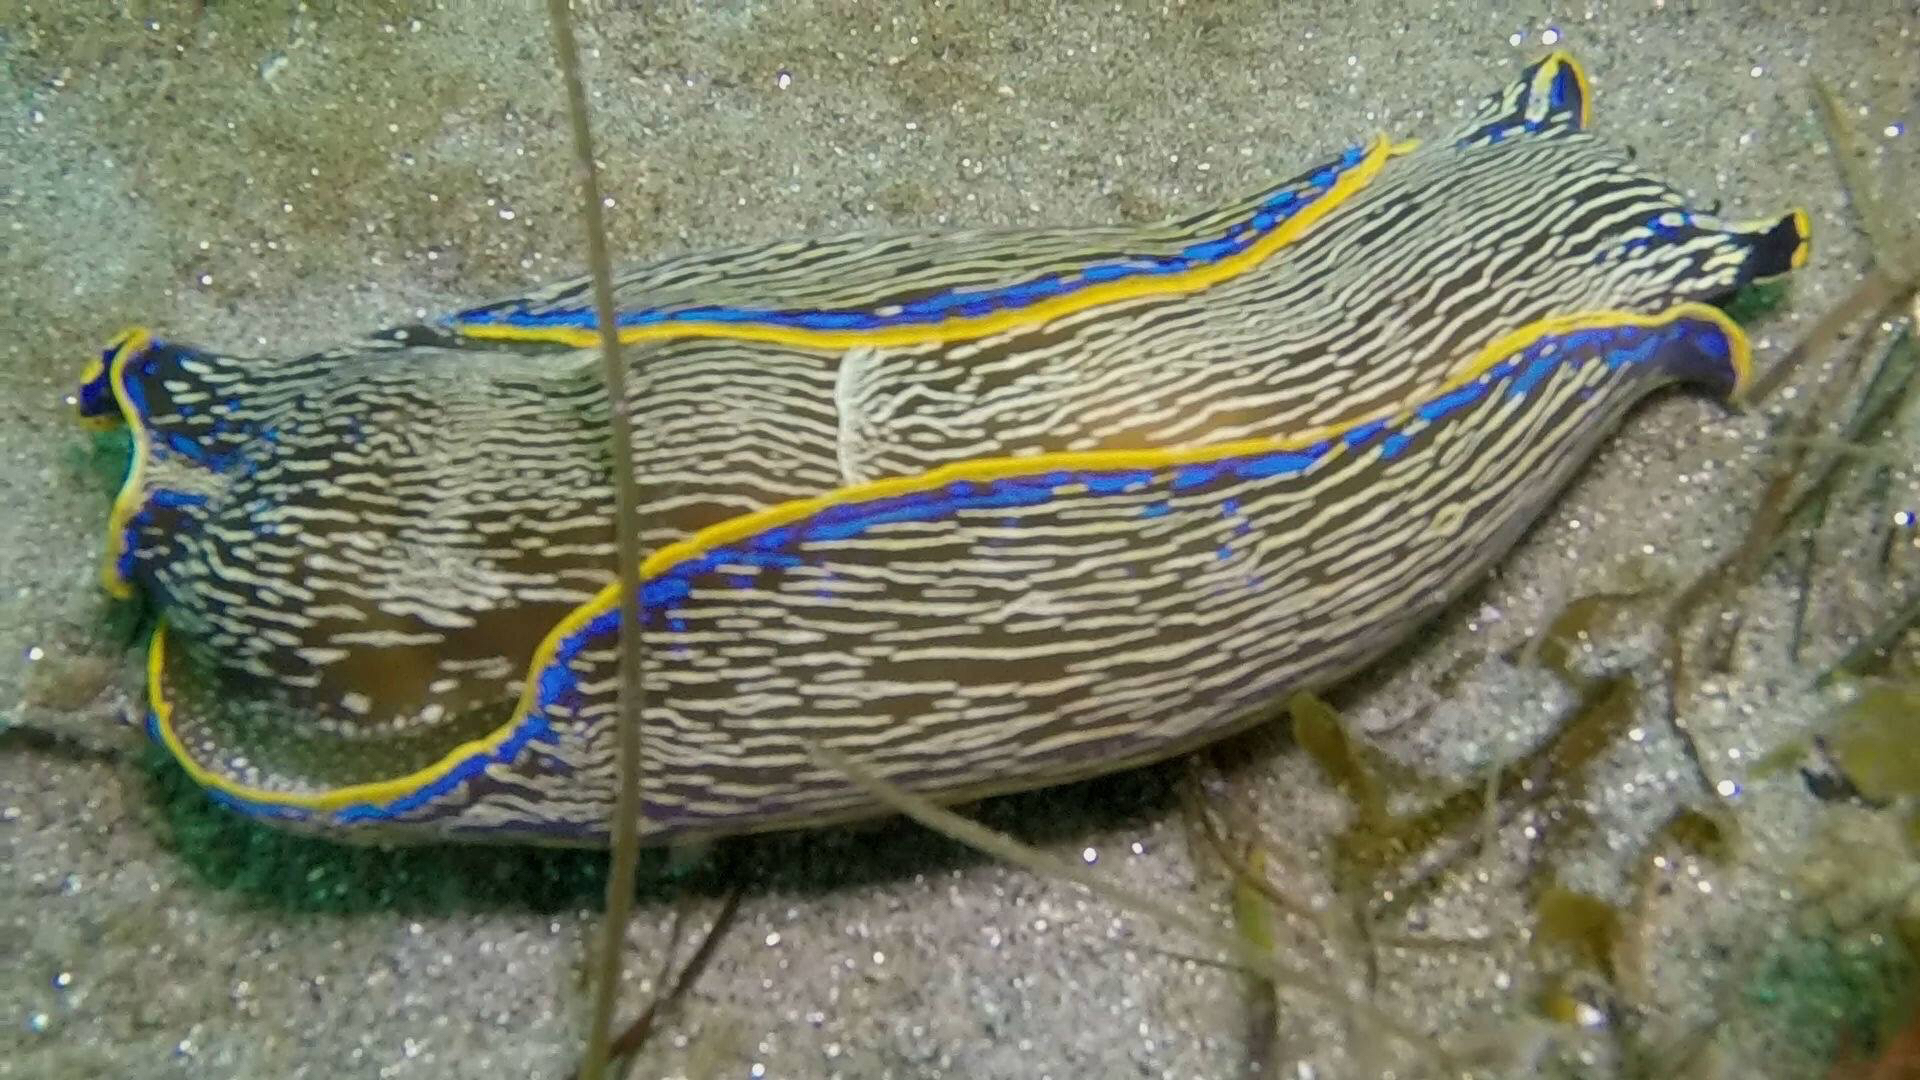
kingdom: Animalia
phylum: Mollusca
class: Gastropoda
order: Cephalaspidea
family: Aglajidae
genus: Navanax
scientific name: Navanax inermis
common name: California aglaja
